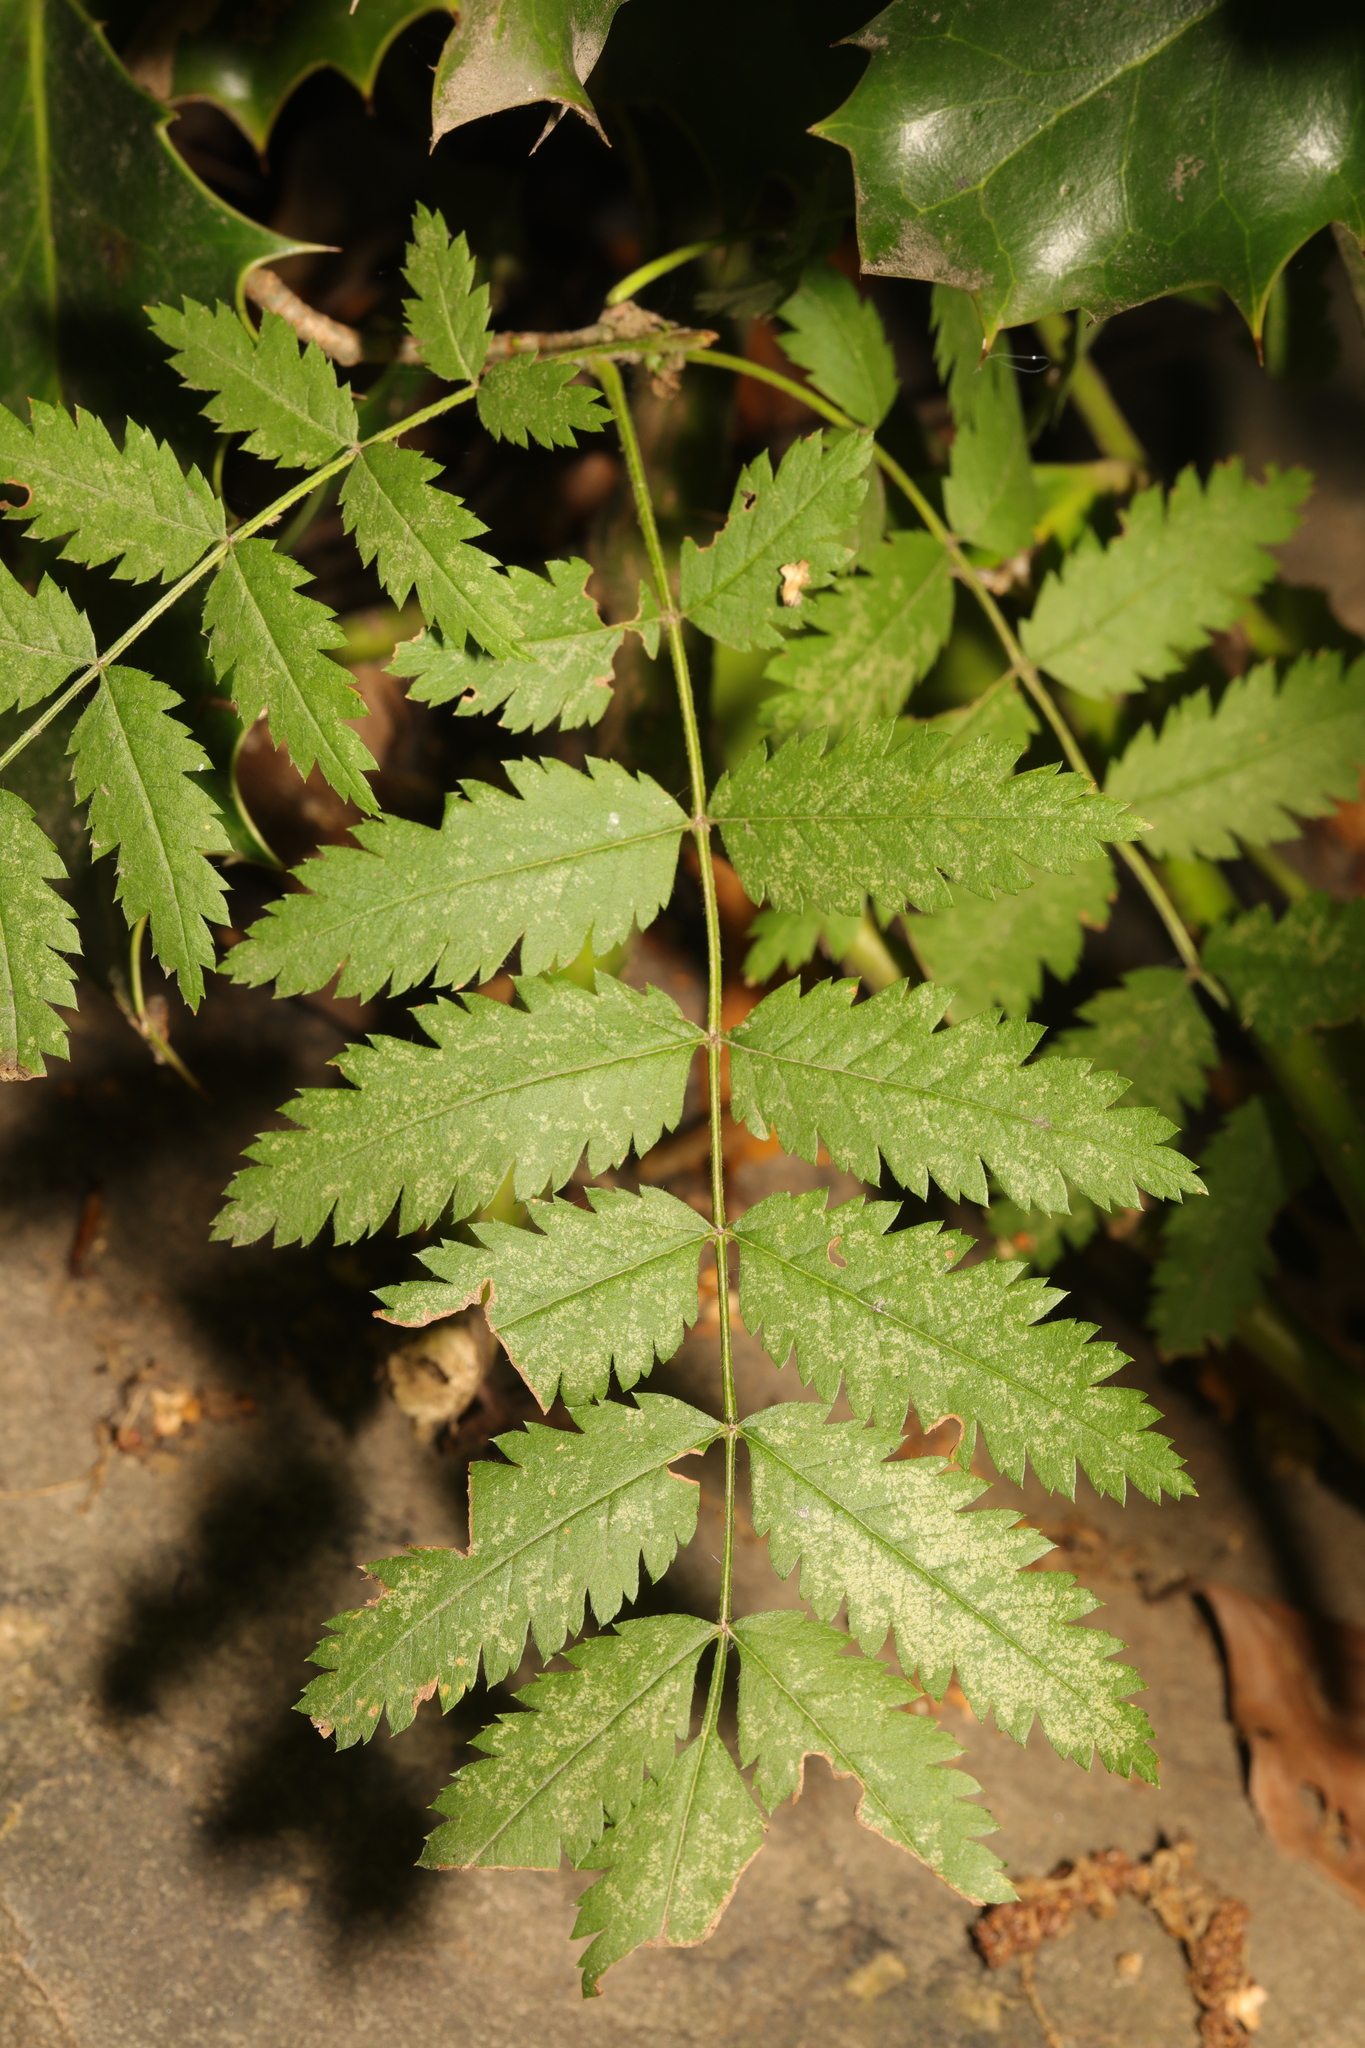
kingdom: Plantae
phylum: Tracheophyta
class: Magnoliopsida
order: Rosales
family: Rosaceae
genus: Sorbus
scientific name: Sorbus aucuparia
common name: Rowan
